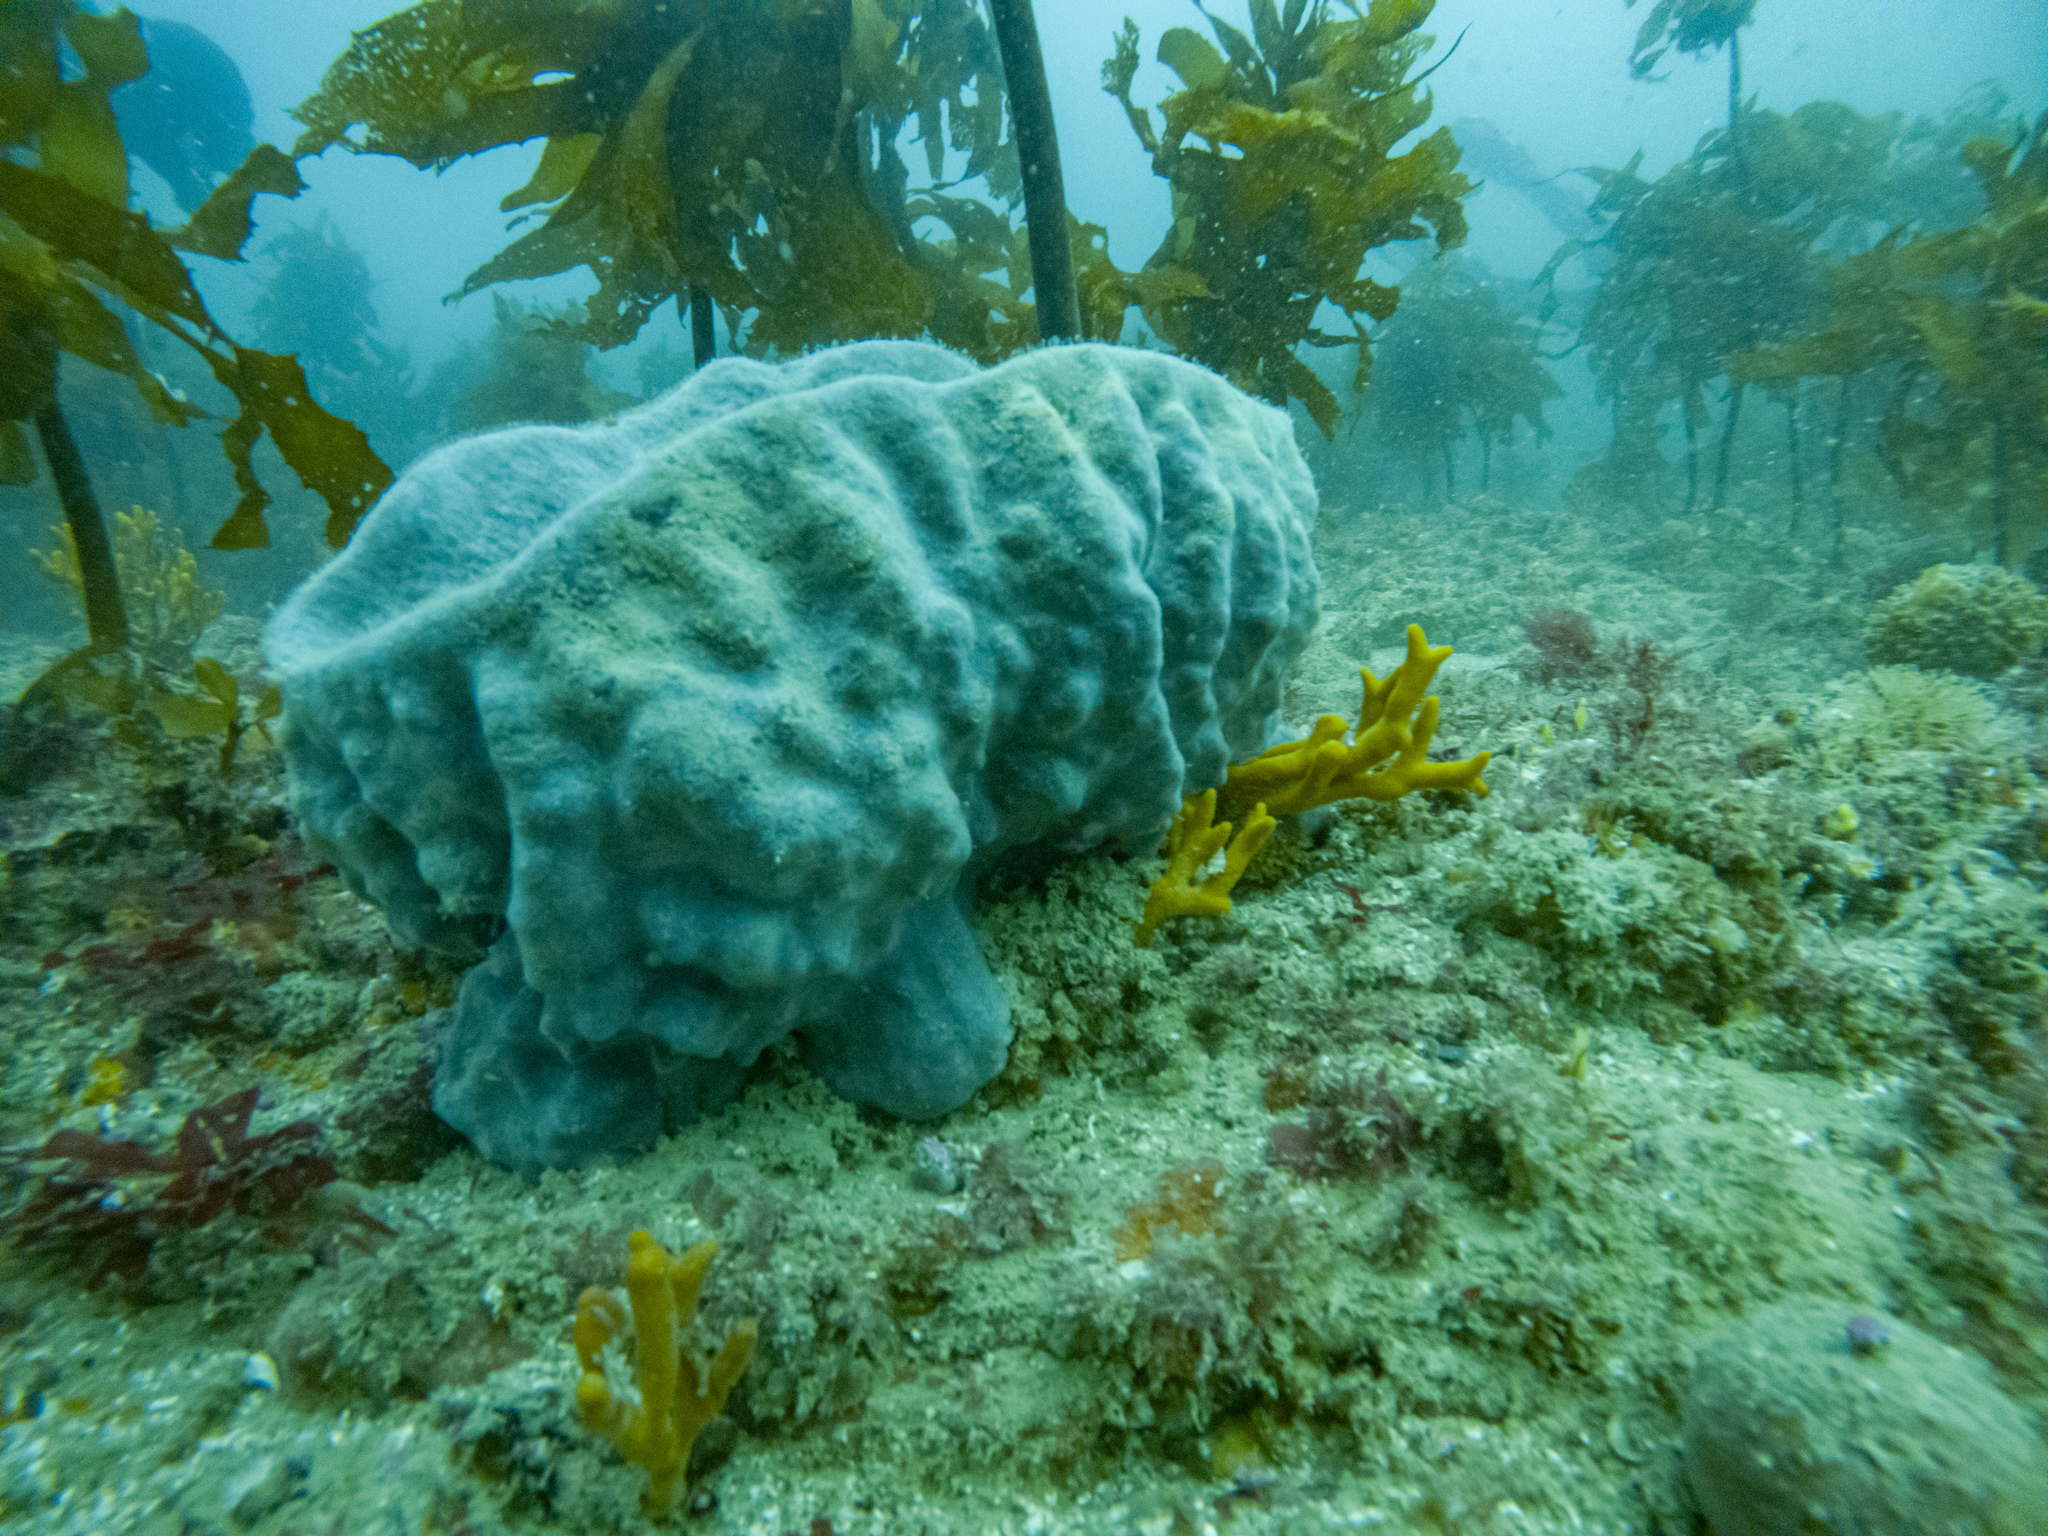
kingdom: Animalia
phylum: Porifera
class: Demospongiae
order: Tetractinellida
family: Ancorinidae
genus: Ecionemia
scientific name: Ecionemia alata
